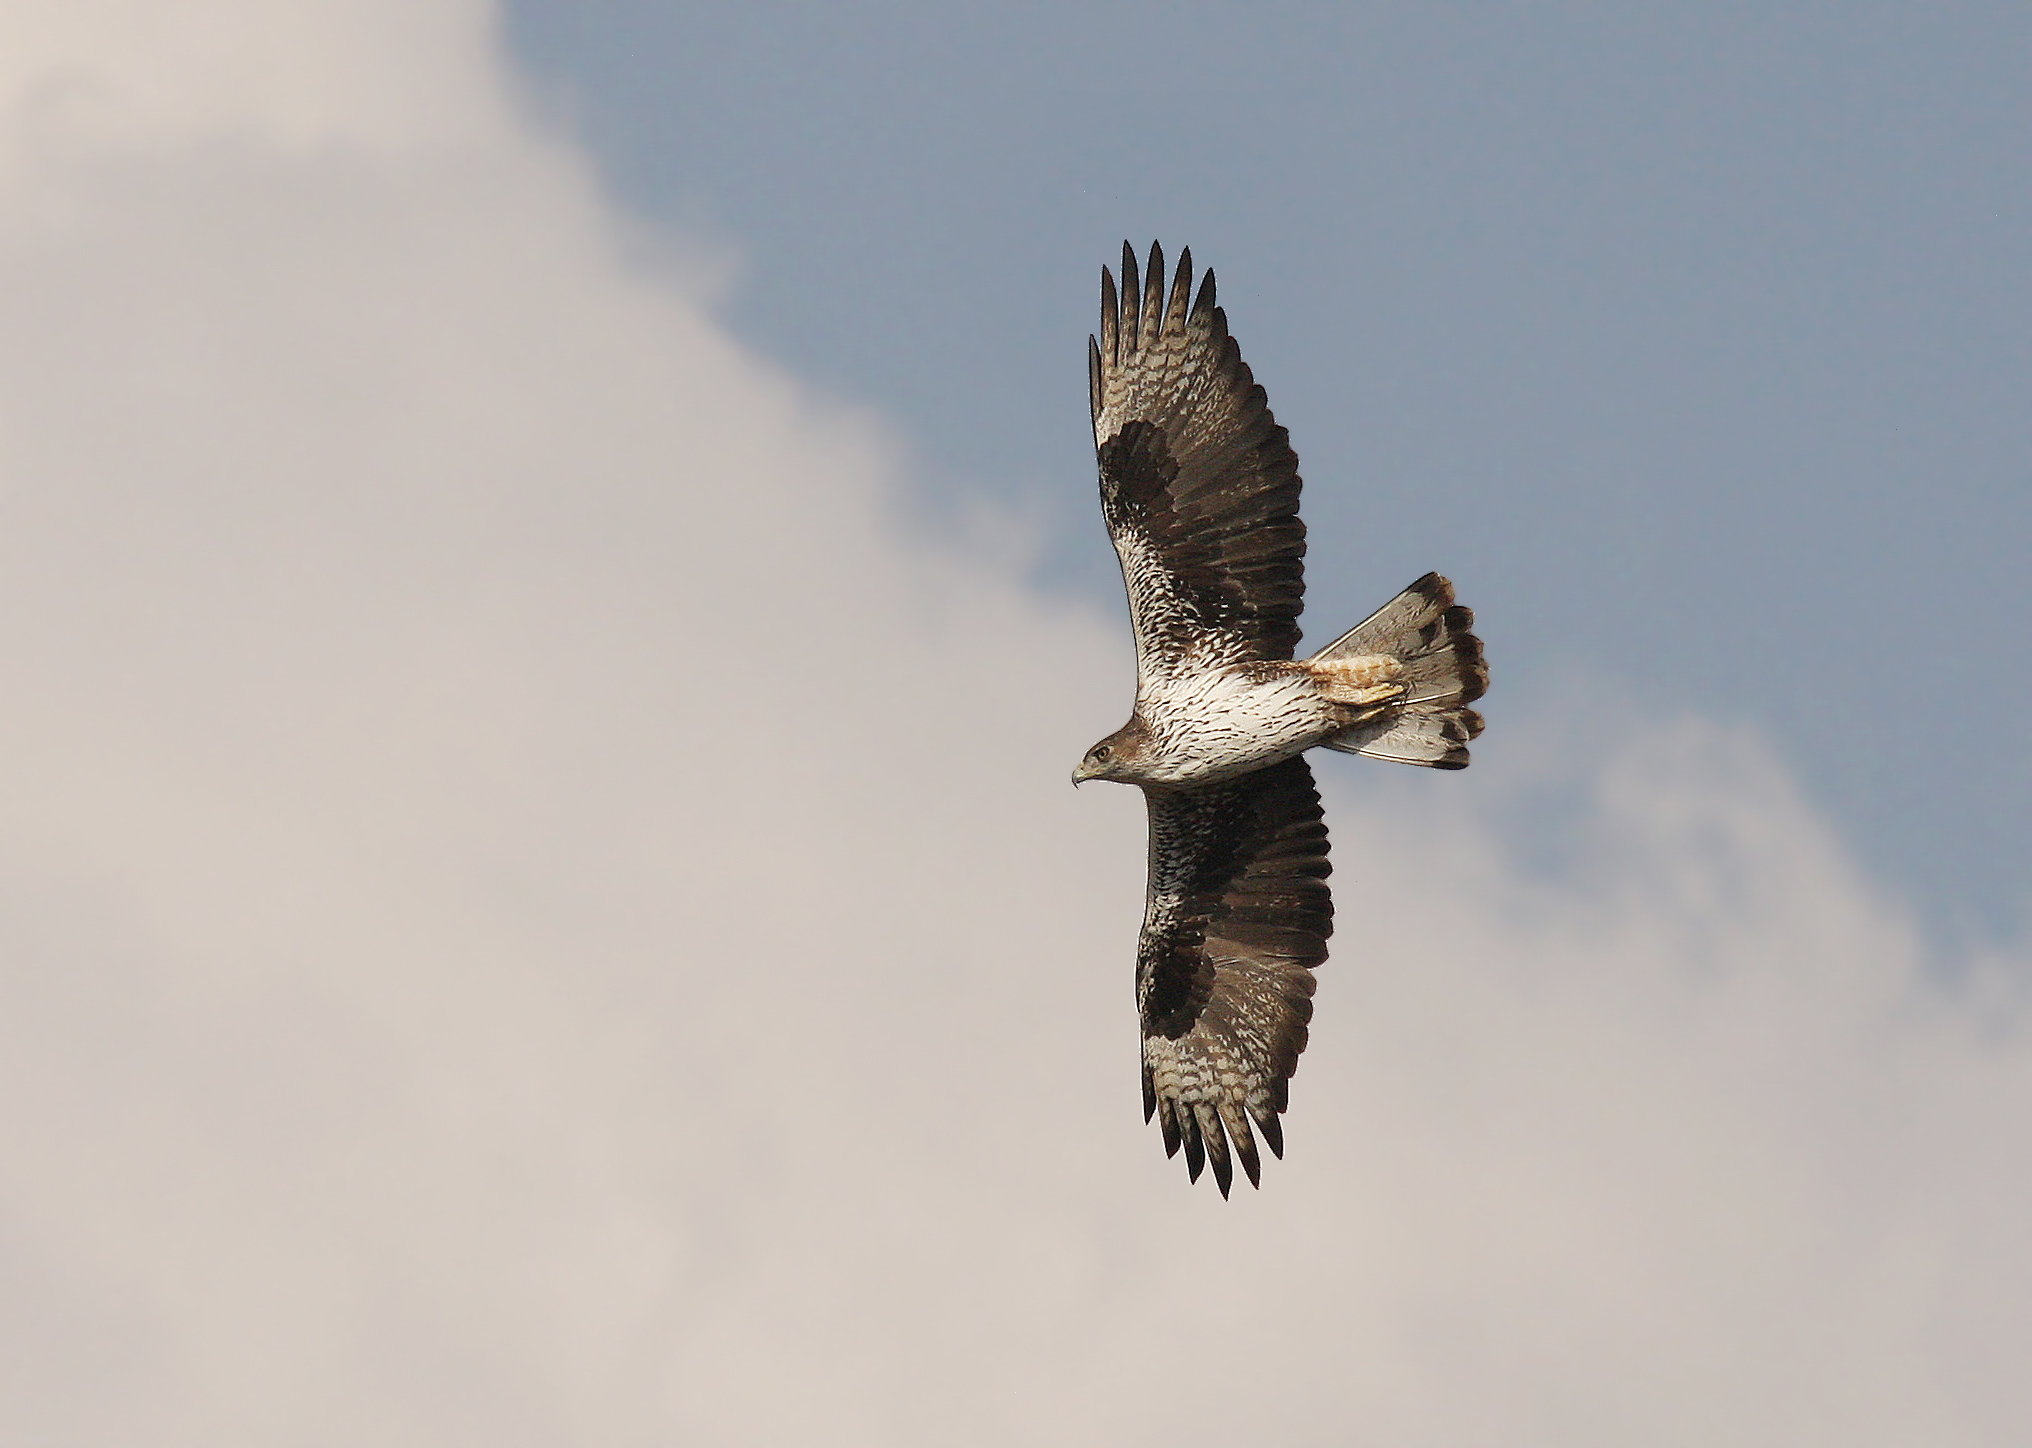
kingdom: Animalia
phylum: Chordata
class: Aves
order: Accipitriformes
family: Accipitridae
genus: Aquila
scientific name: Aquila fasciata
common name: Bonelli's eagle
